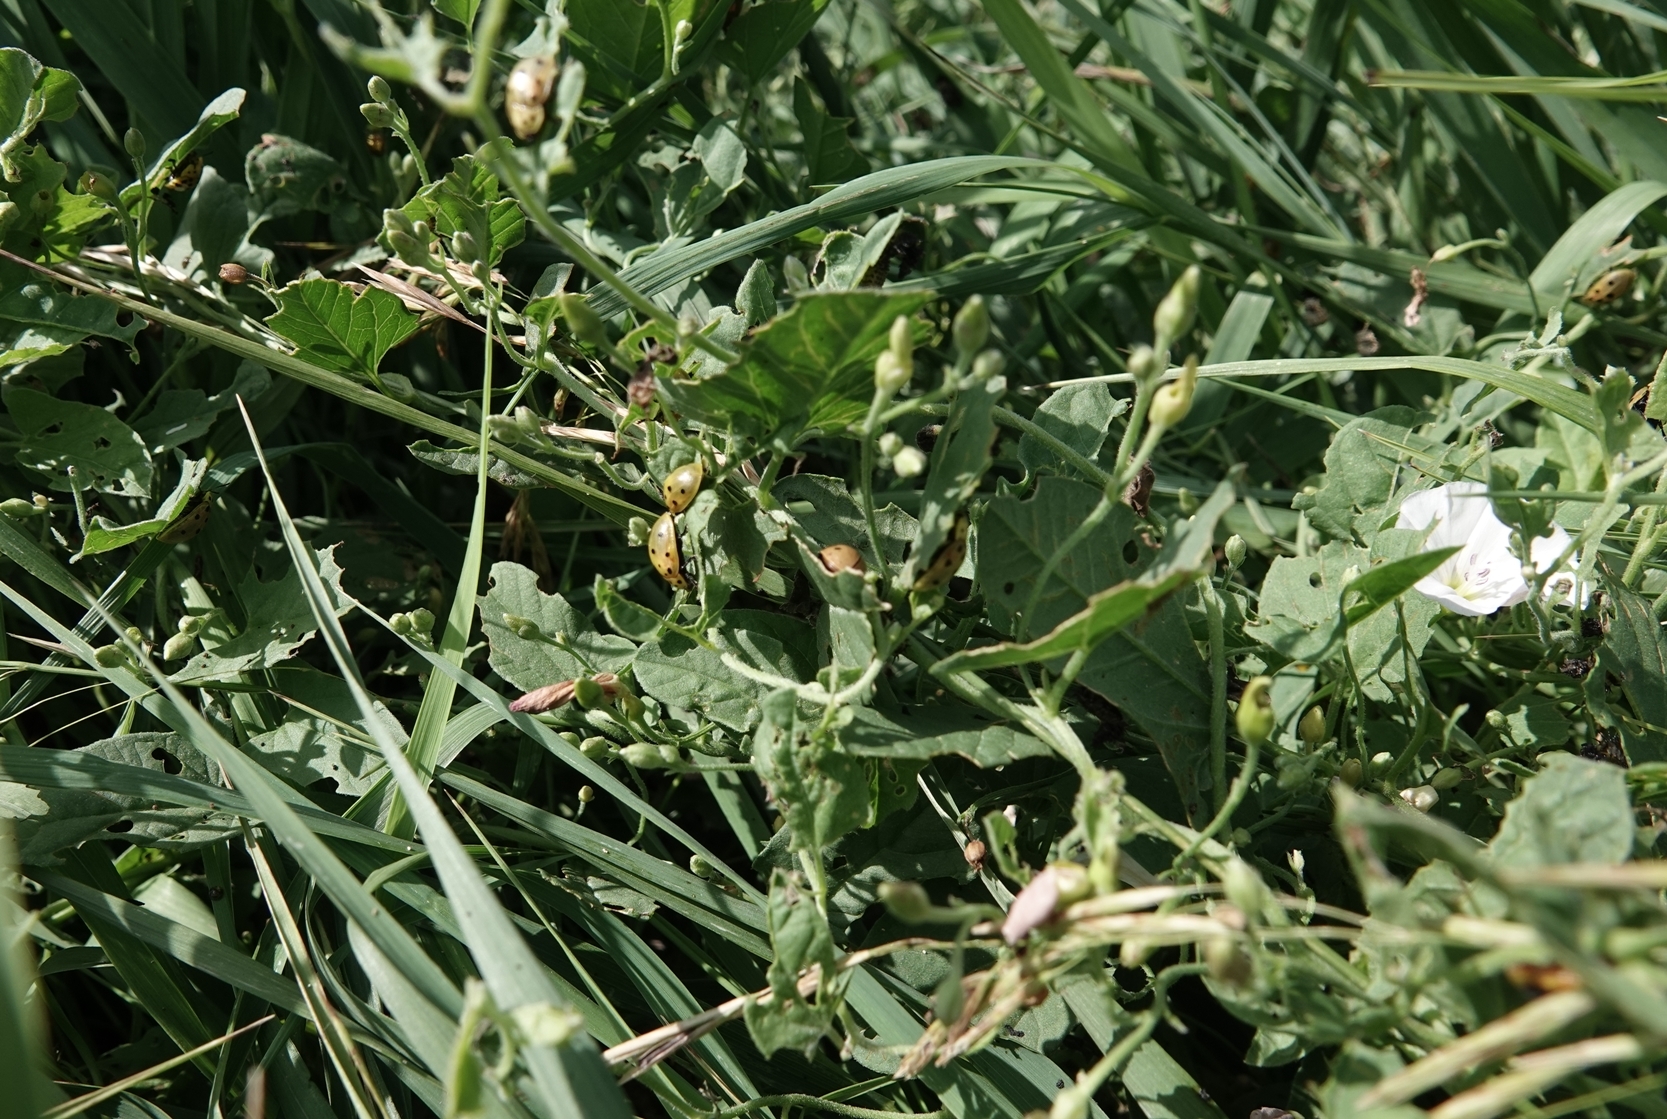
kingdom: Animalia
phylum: Arthropoda
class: Insecta
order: Coleoptera
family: Chrysomelidae
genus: Chelymorpha
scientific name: Chelymorpha cassidea
